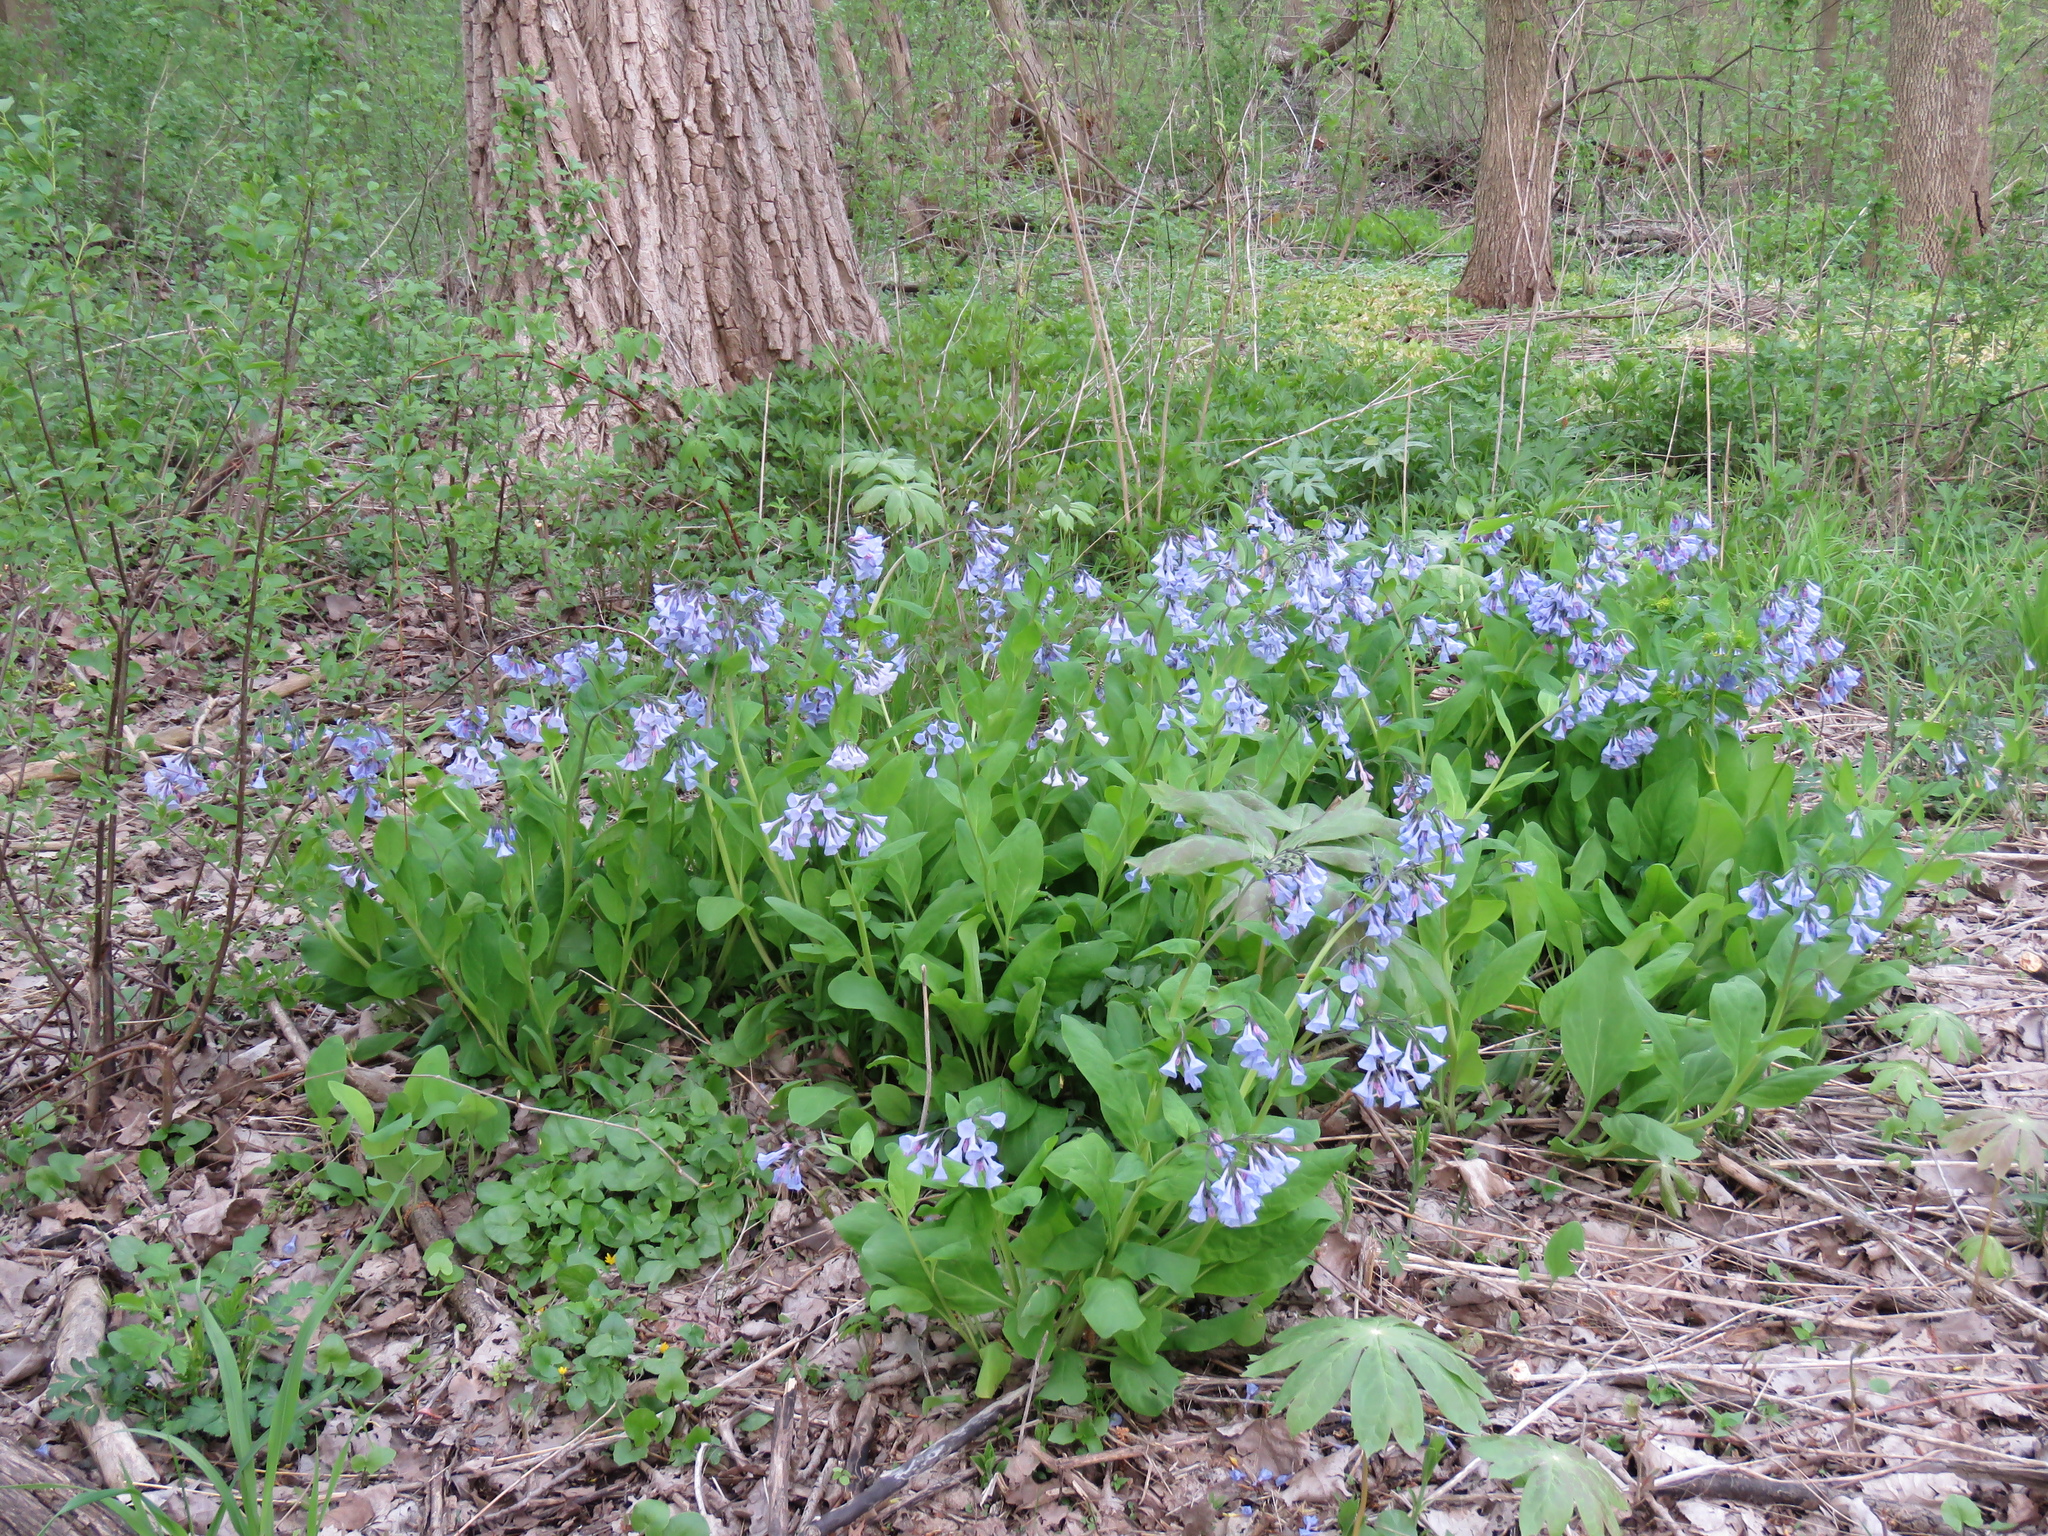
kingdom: Plantae
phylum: Tracheophyta
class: Magnoliopsida
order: Boraginales
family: Boraginaceae
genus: Mertensia
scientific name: Mertensia virginica
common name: Virginia bluebells
